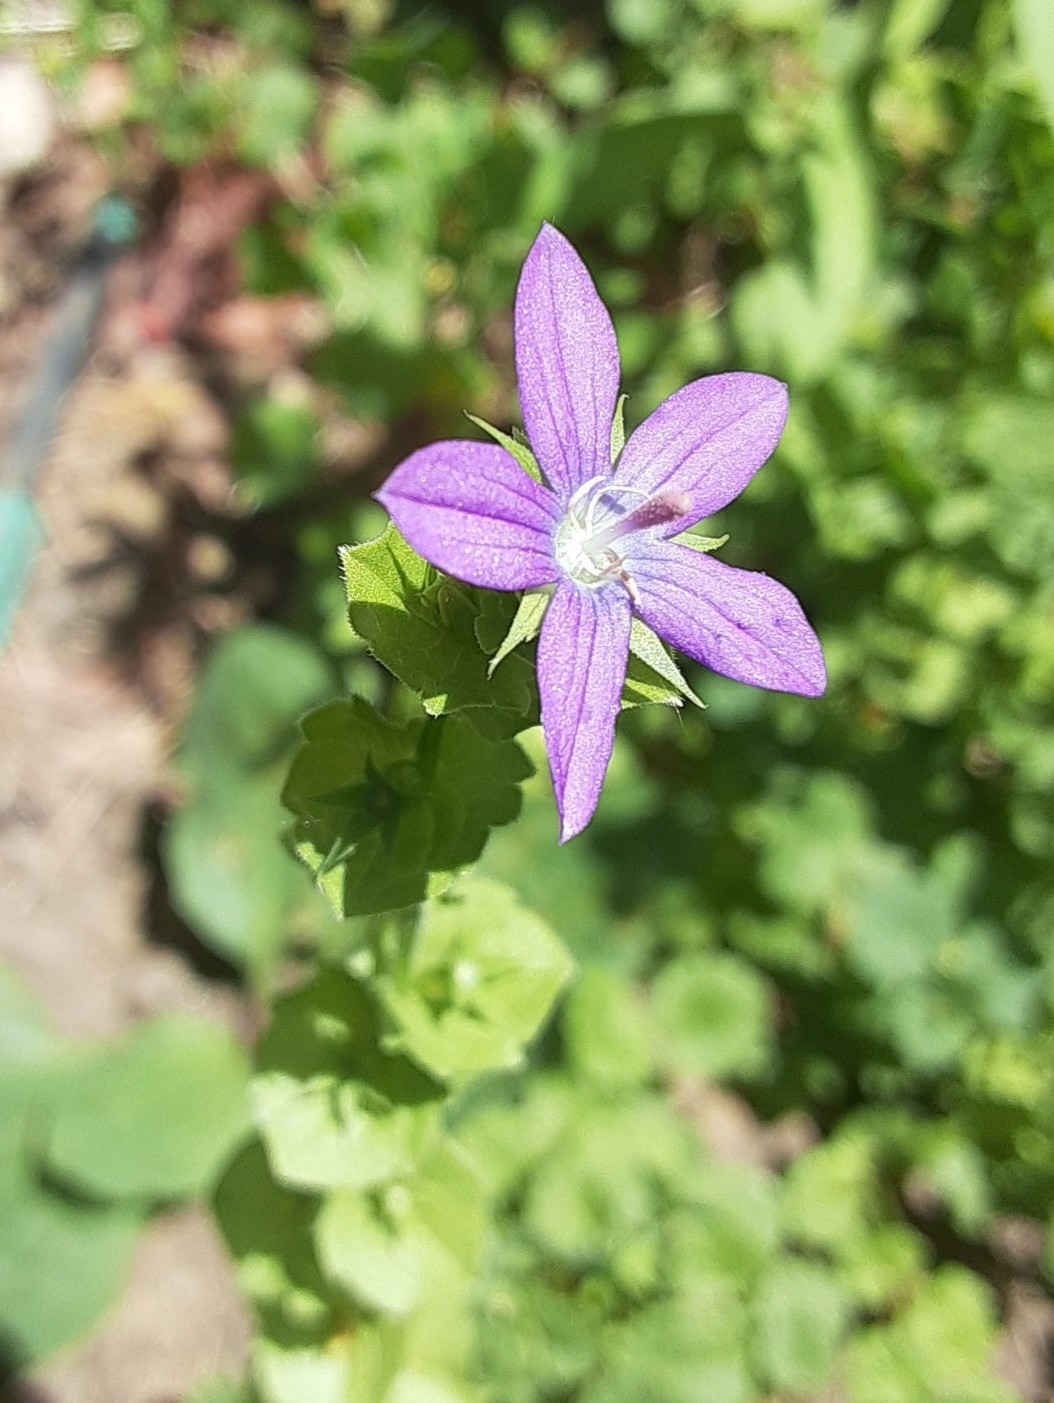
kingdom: Plantae
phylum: Tracheophyta
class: Magnoliopsida
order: Asterales
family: Campanulaceae
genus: Triodanis
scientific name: Triodanis perfoliata
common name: Clasping venus' looking-glass
